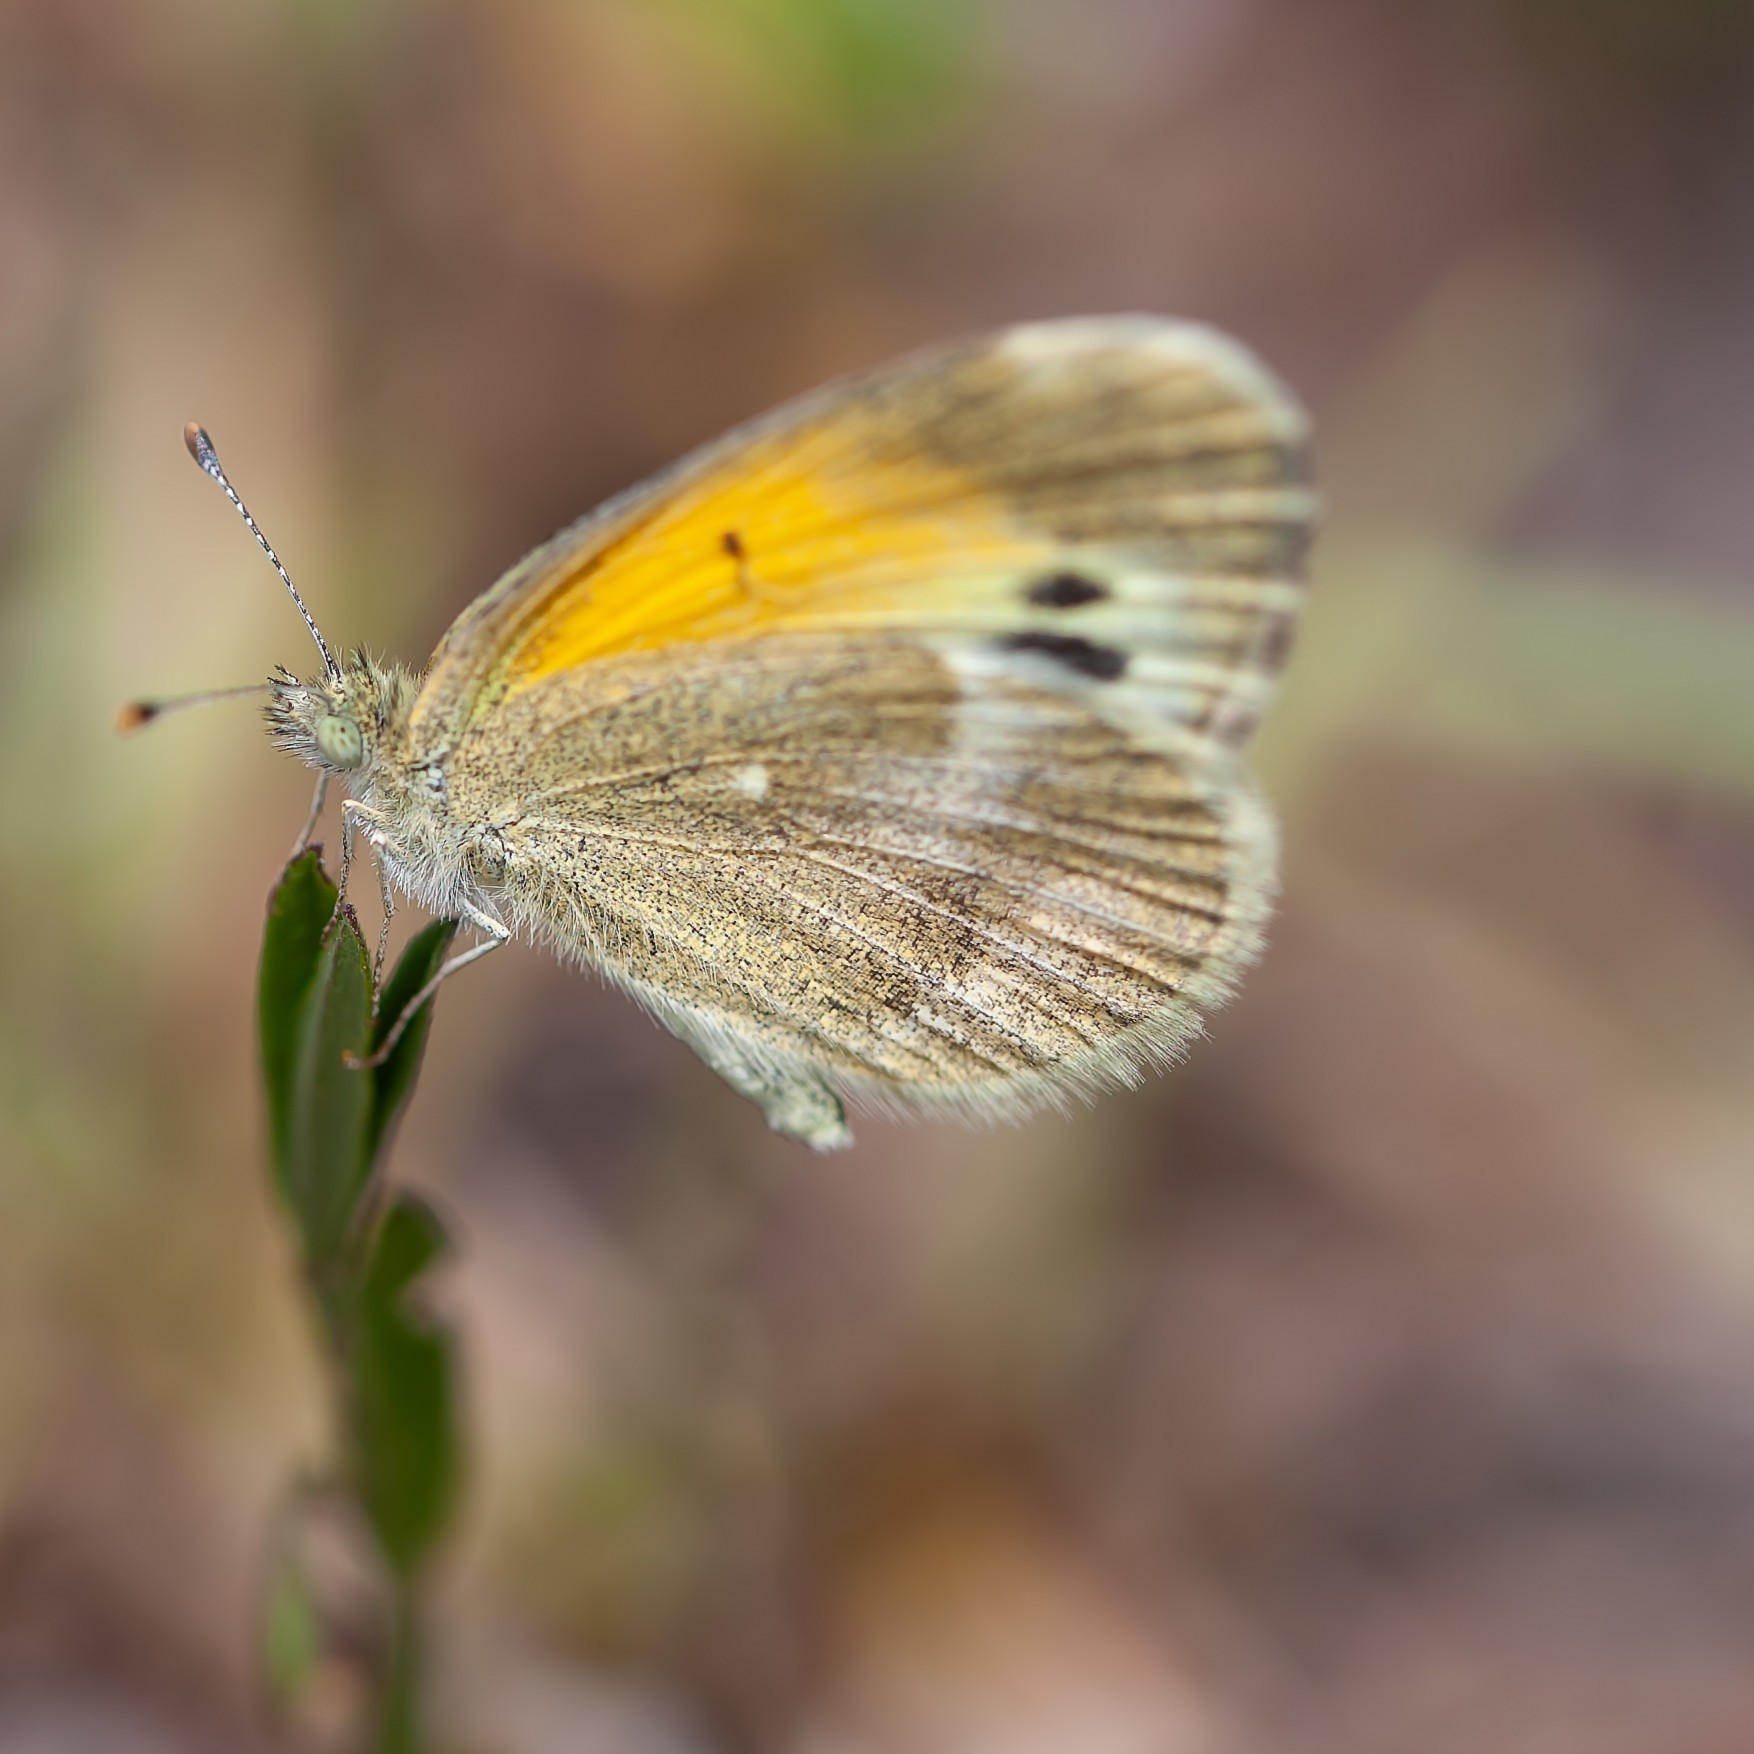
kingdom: Animalia
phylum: Arthropoda
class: Insecta
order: Lepidoptera
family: Pieridae
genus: Nathalis
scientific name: Nathalis iole
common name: Dainty sulphur
